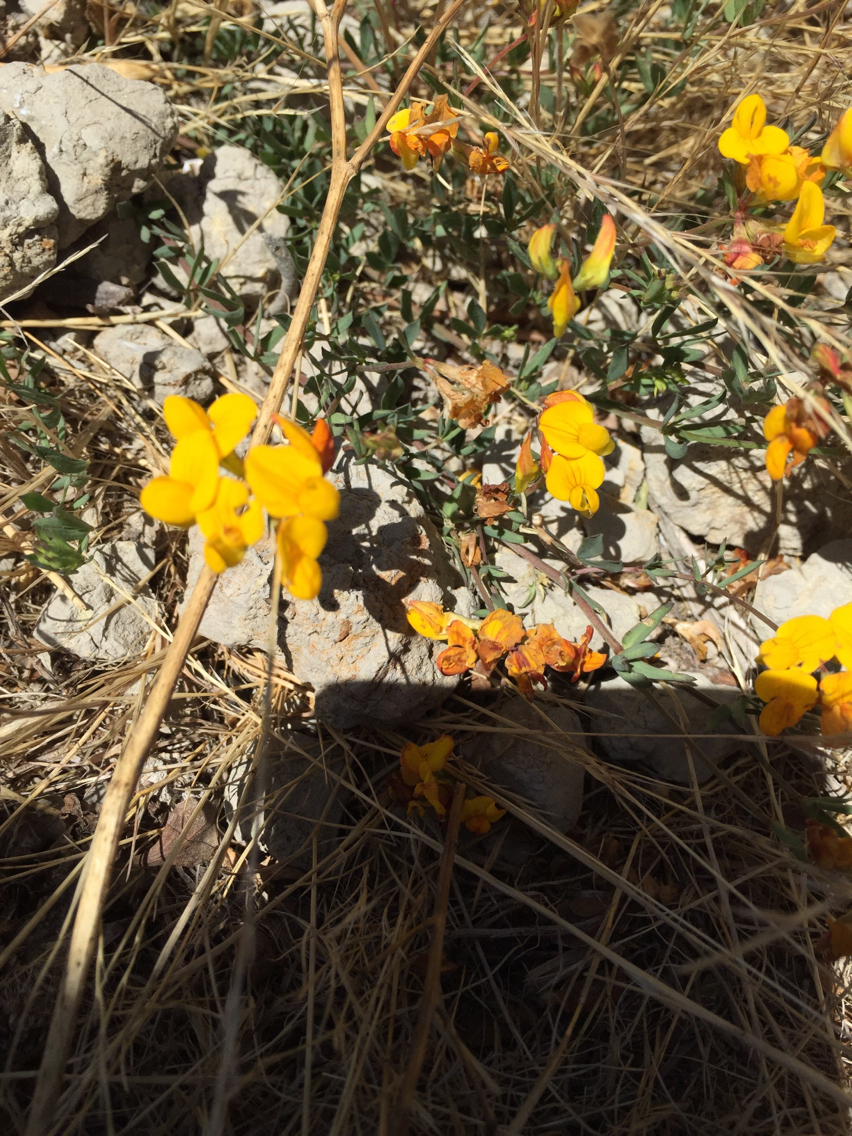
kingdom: Plantae
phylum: Tracheophyta
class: Magnoliopsida
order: Fabales
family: Fabaceae
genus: Lotus
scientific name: Lotus corniculatus
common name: Common bird's-foot-trefoil
